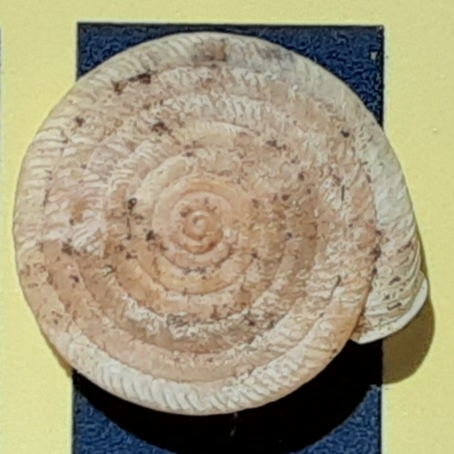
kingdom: Animalia
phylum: Mollusca
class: Gastropoda
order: Stylommatophora
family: Polygyridae
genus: Polygyra
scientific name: Polygyra cereolus
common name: Southern flatcone snail
